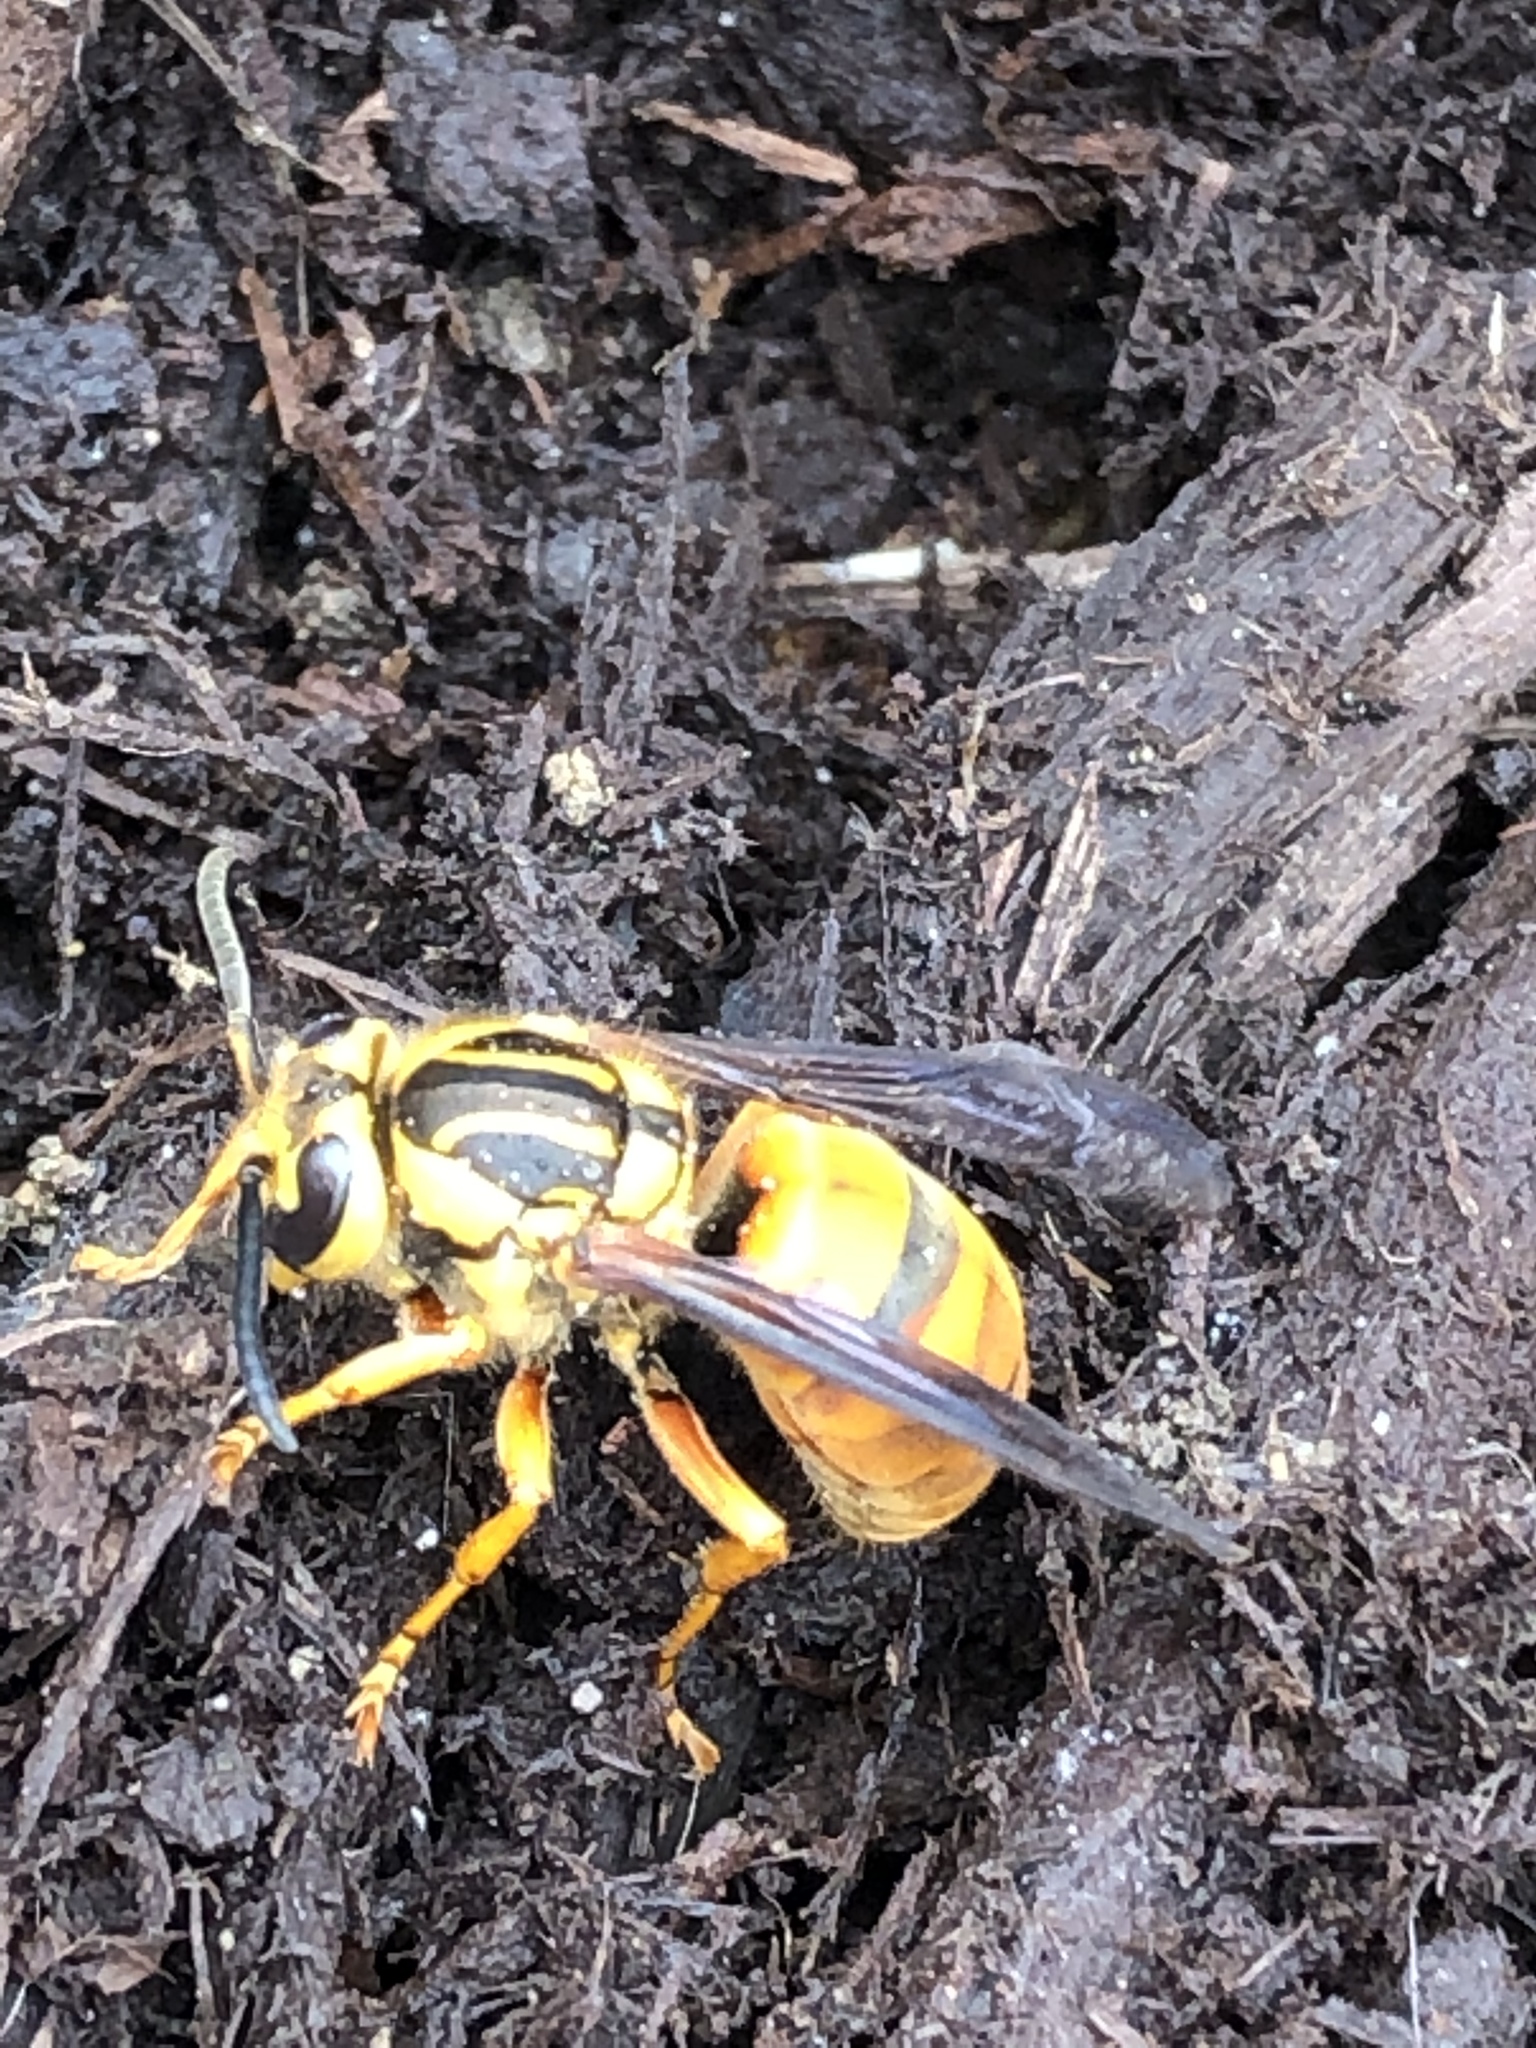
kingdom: Animalia
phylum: Arthropoda
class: Insecta
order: Hymenoptera
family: Vespidae
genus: Vespula
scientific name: Vespula squamosa
